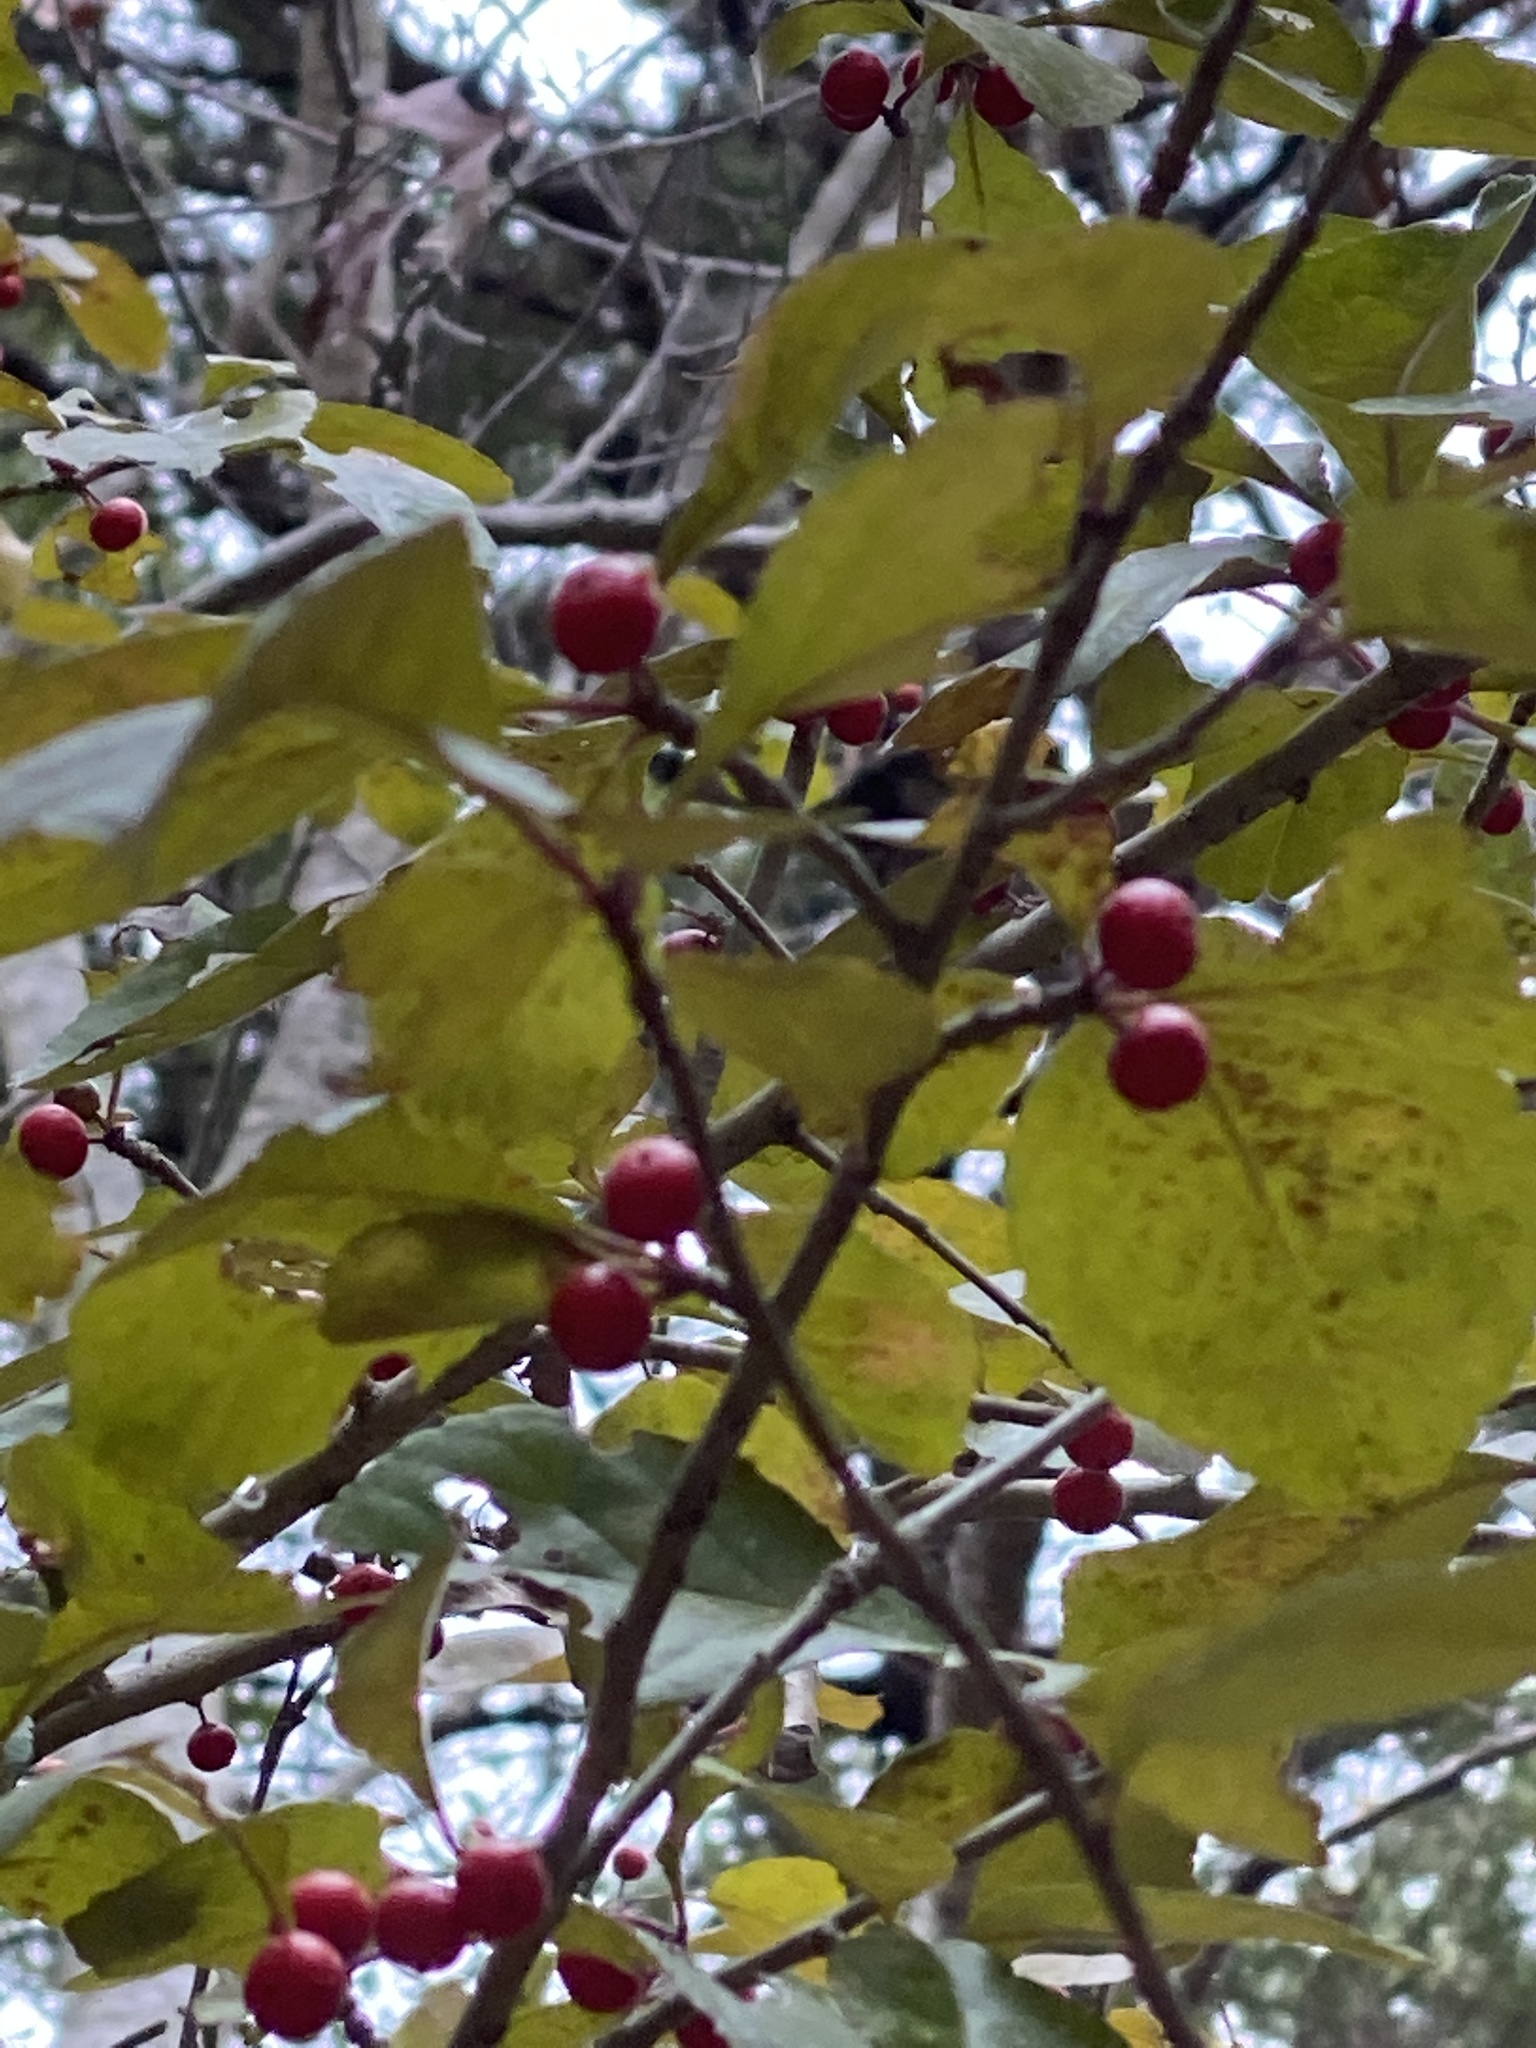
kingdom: Plantae
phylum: Tracheophyta
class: Magnoliopsida
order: Aquifoliales
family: Aquifoliaceae
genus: Ilex
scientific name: Ilex decidua
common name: Possum-haw
